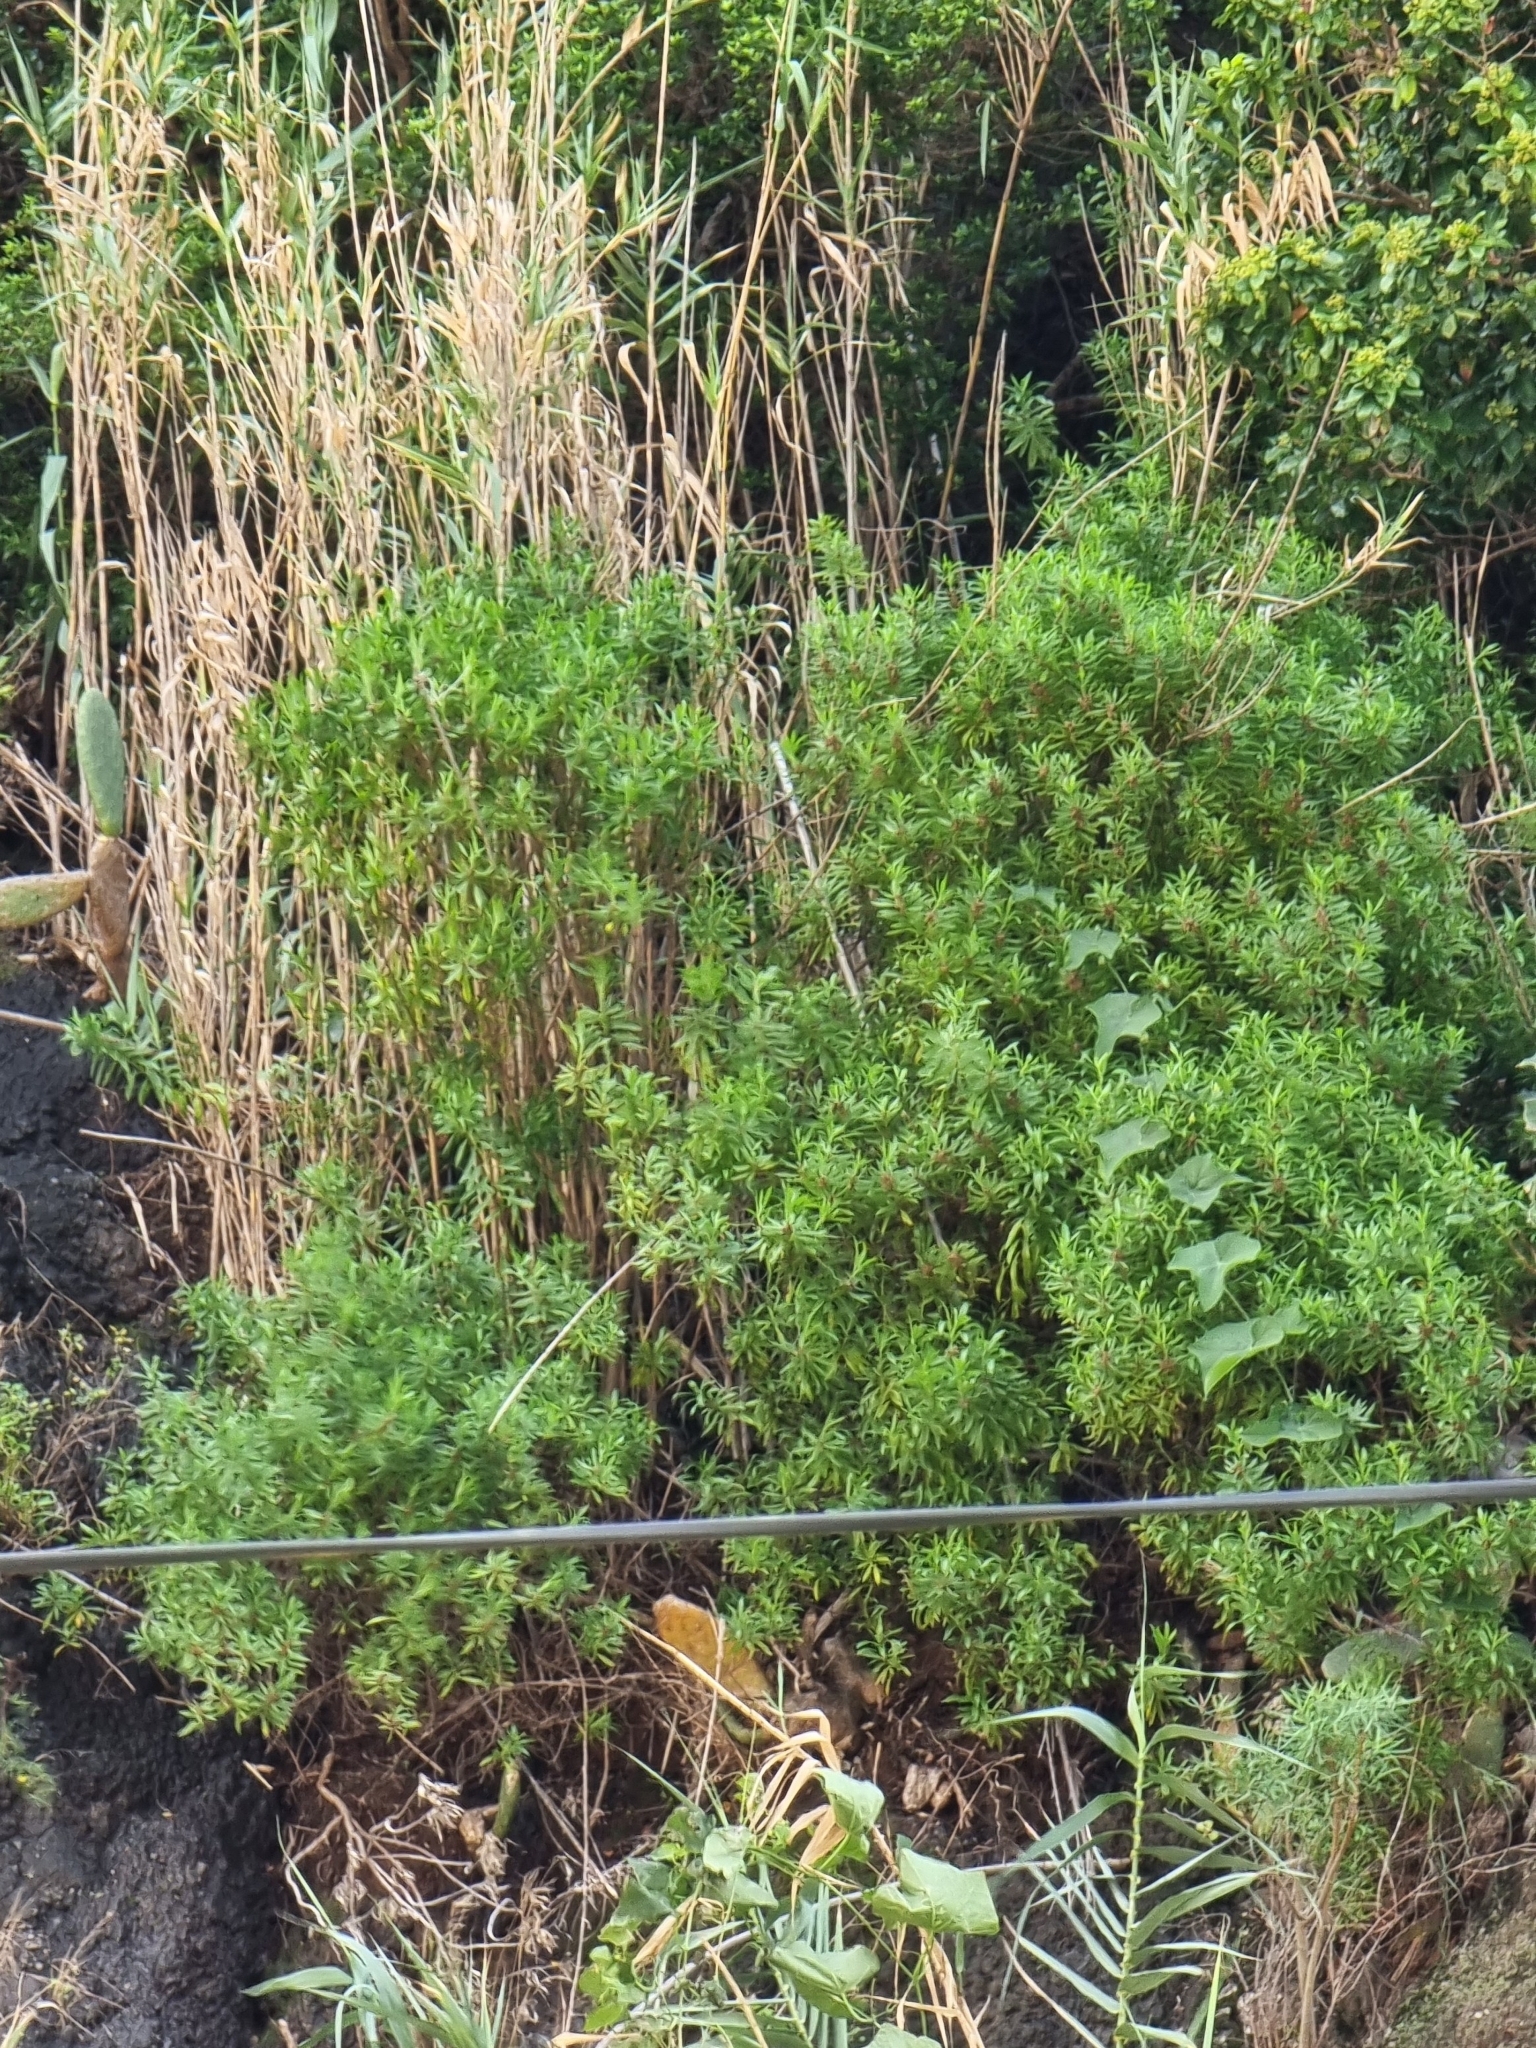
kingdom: Plantae
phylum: Tracheophyta
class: Magnoliopsida
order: Lamiales
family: Plantaginaceae
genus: Globularia
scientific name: Globularia salicina
